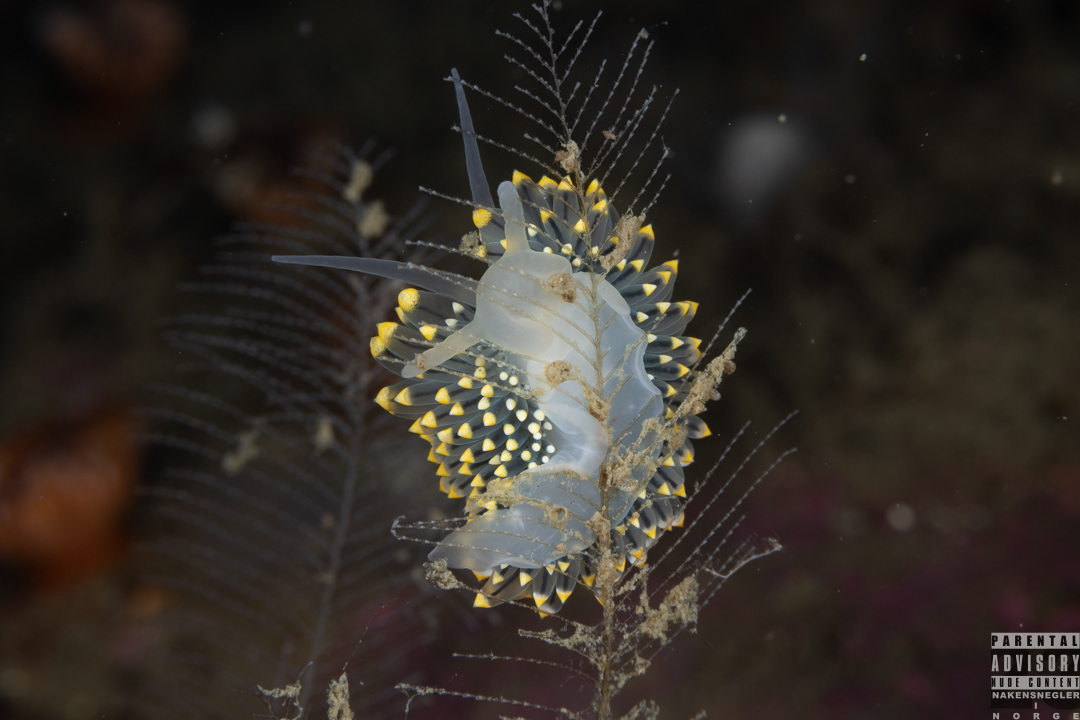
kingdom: Animalia
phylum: Mollusca
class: Gastropoda
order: Nudibranchia
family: Eubranchidae
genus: Eubranchus
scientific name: Eubranchus tricolor
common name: Painted balloon aeolis
